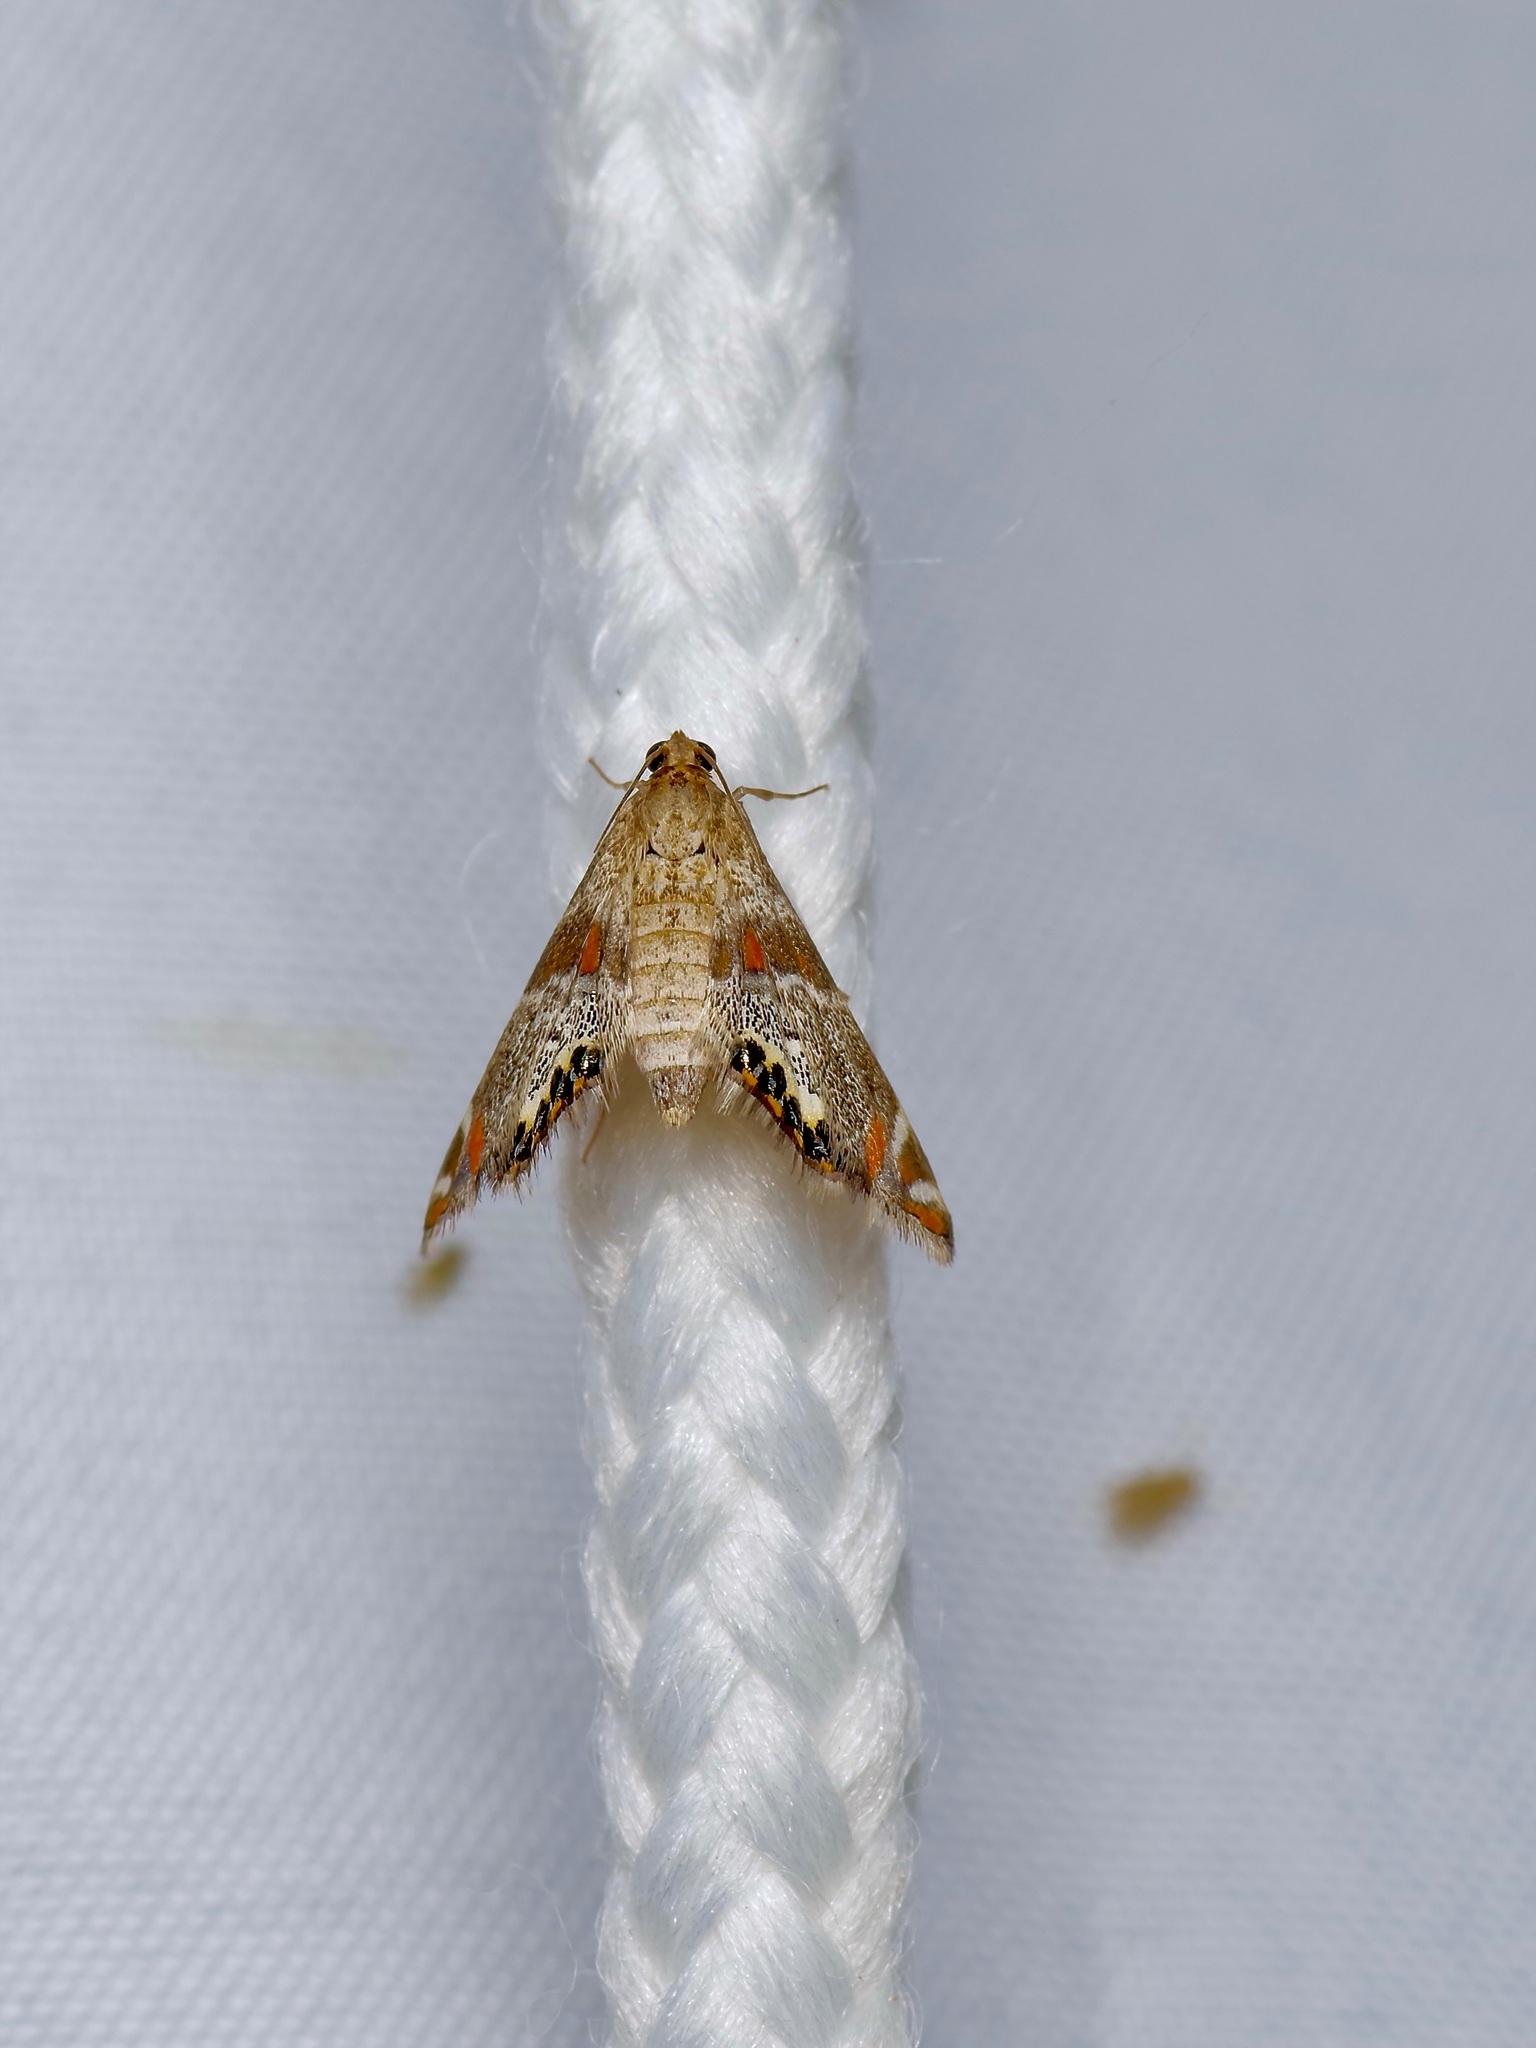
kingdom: Animalia
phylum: Arthropoda
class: Insecta
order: Lepidoptera
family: Crambidae
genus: Petrophila
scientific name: Petrophila jaliscalis
